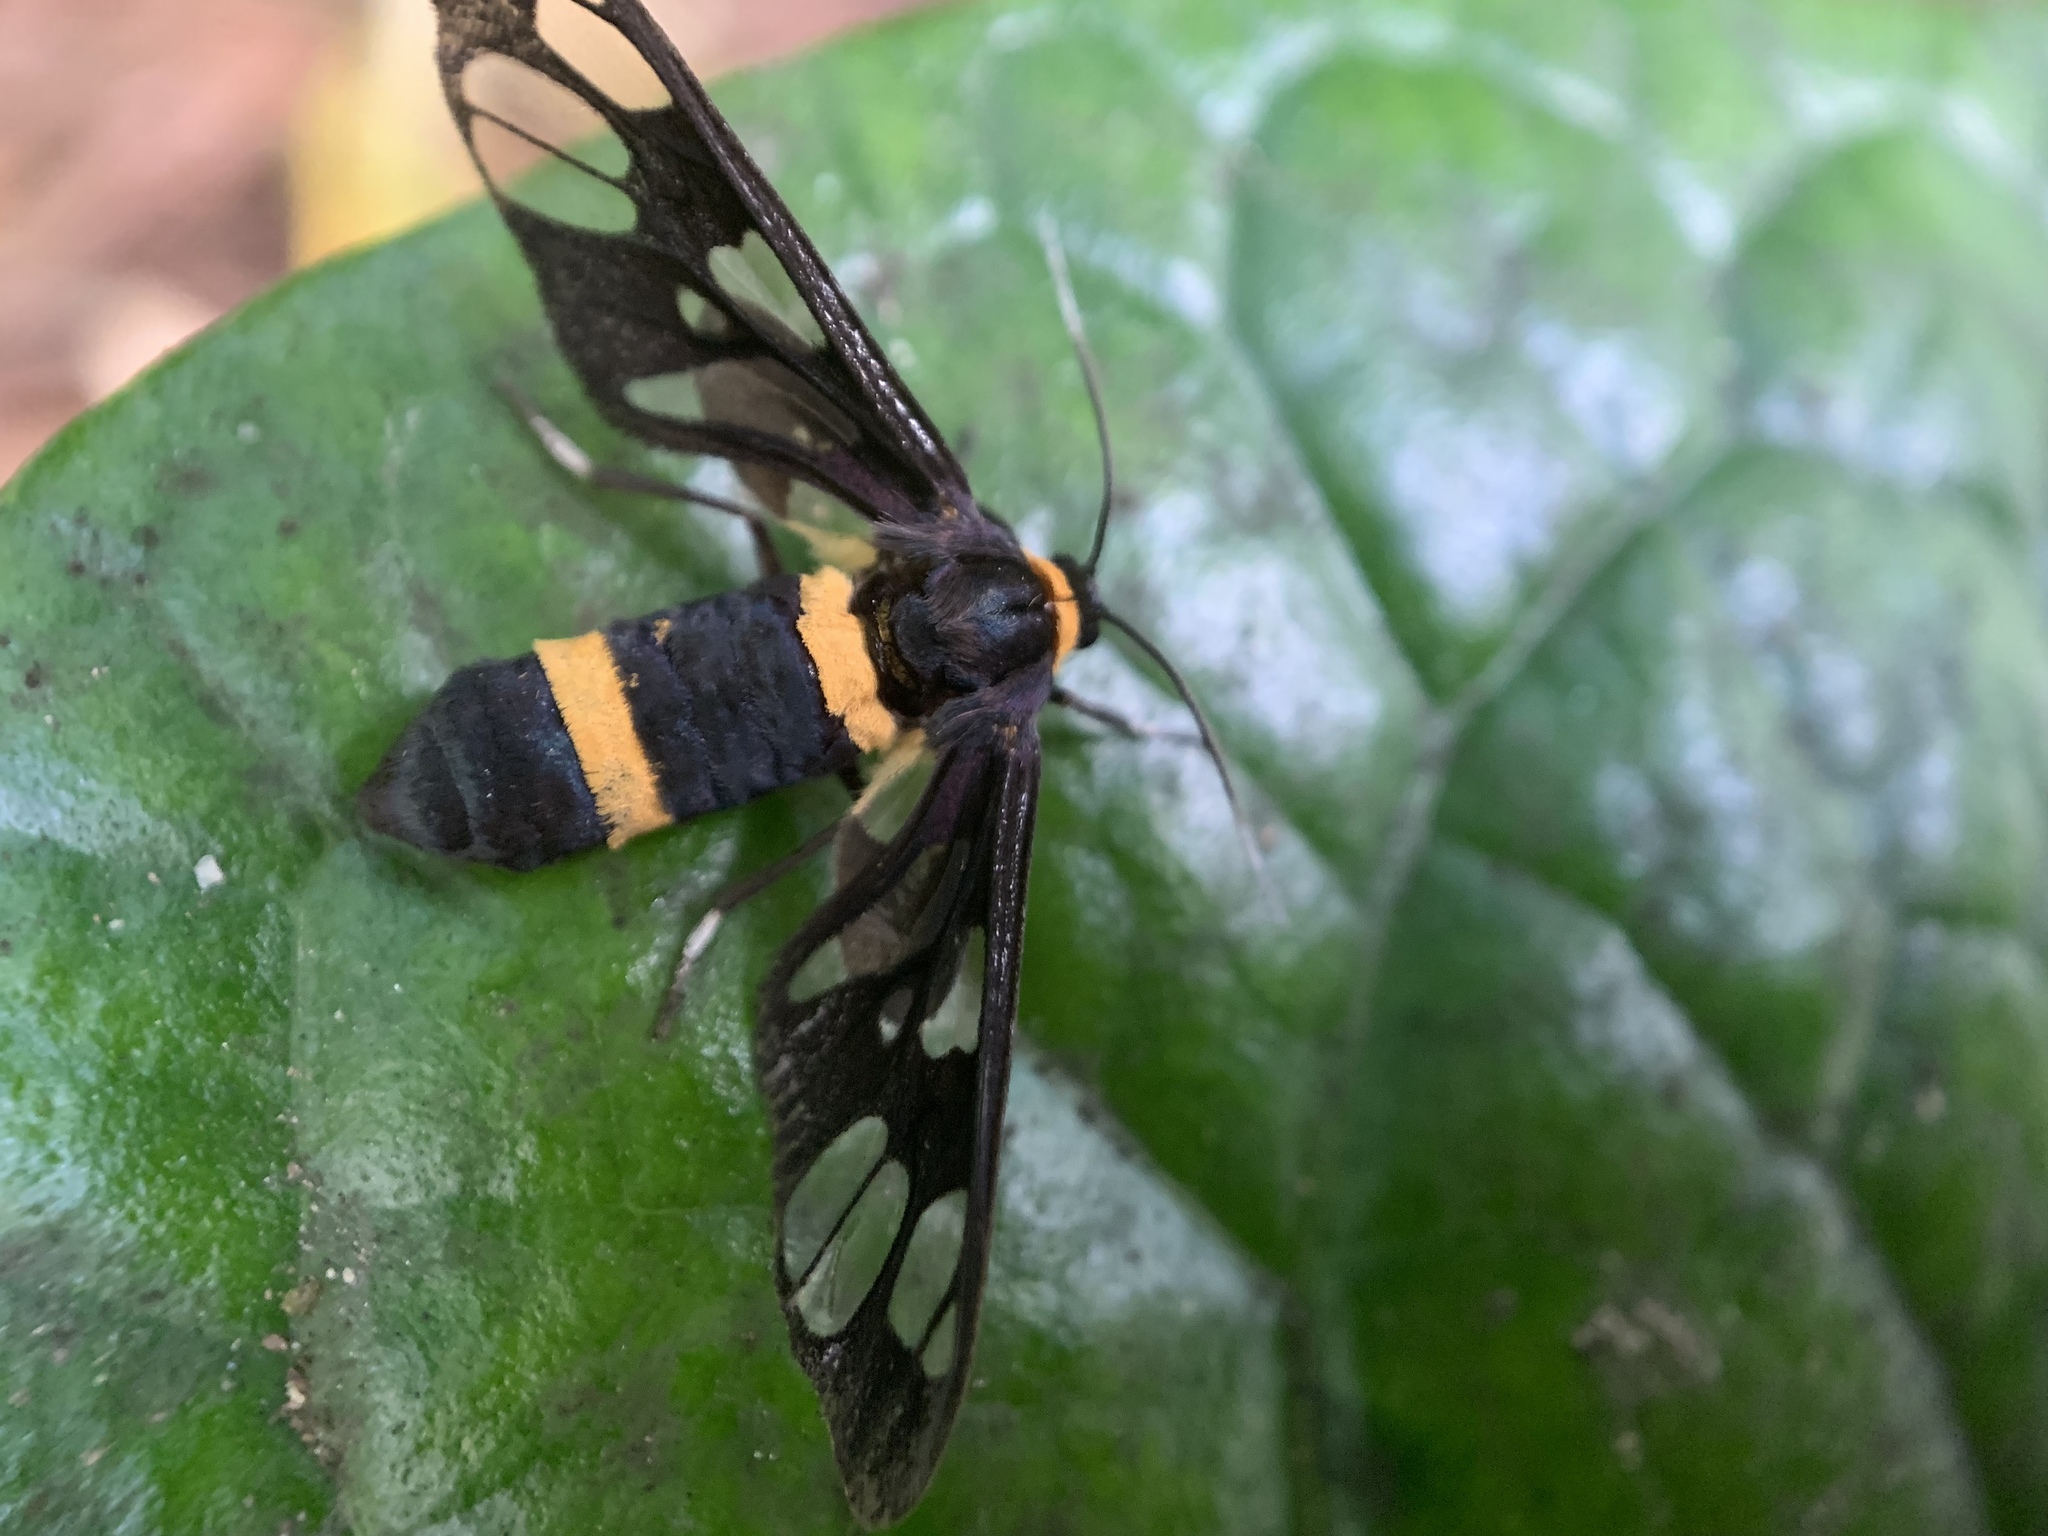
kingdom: Animalia
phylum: Arthropoda
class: Insecta
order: Lepidoptera
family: Erebidae
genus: Syntomoides
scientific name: Syntomoides imaon
